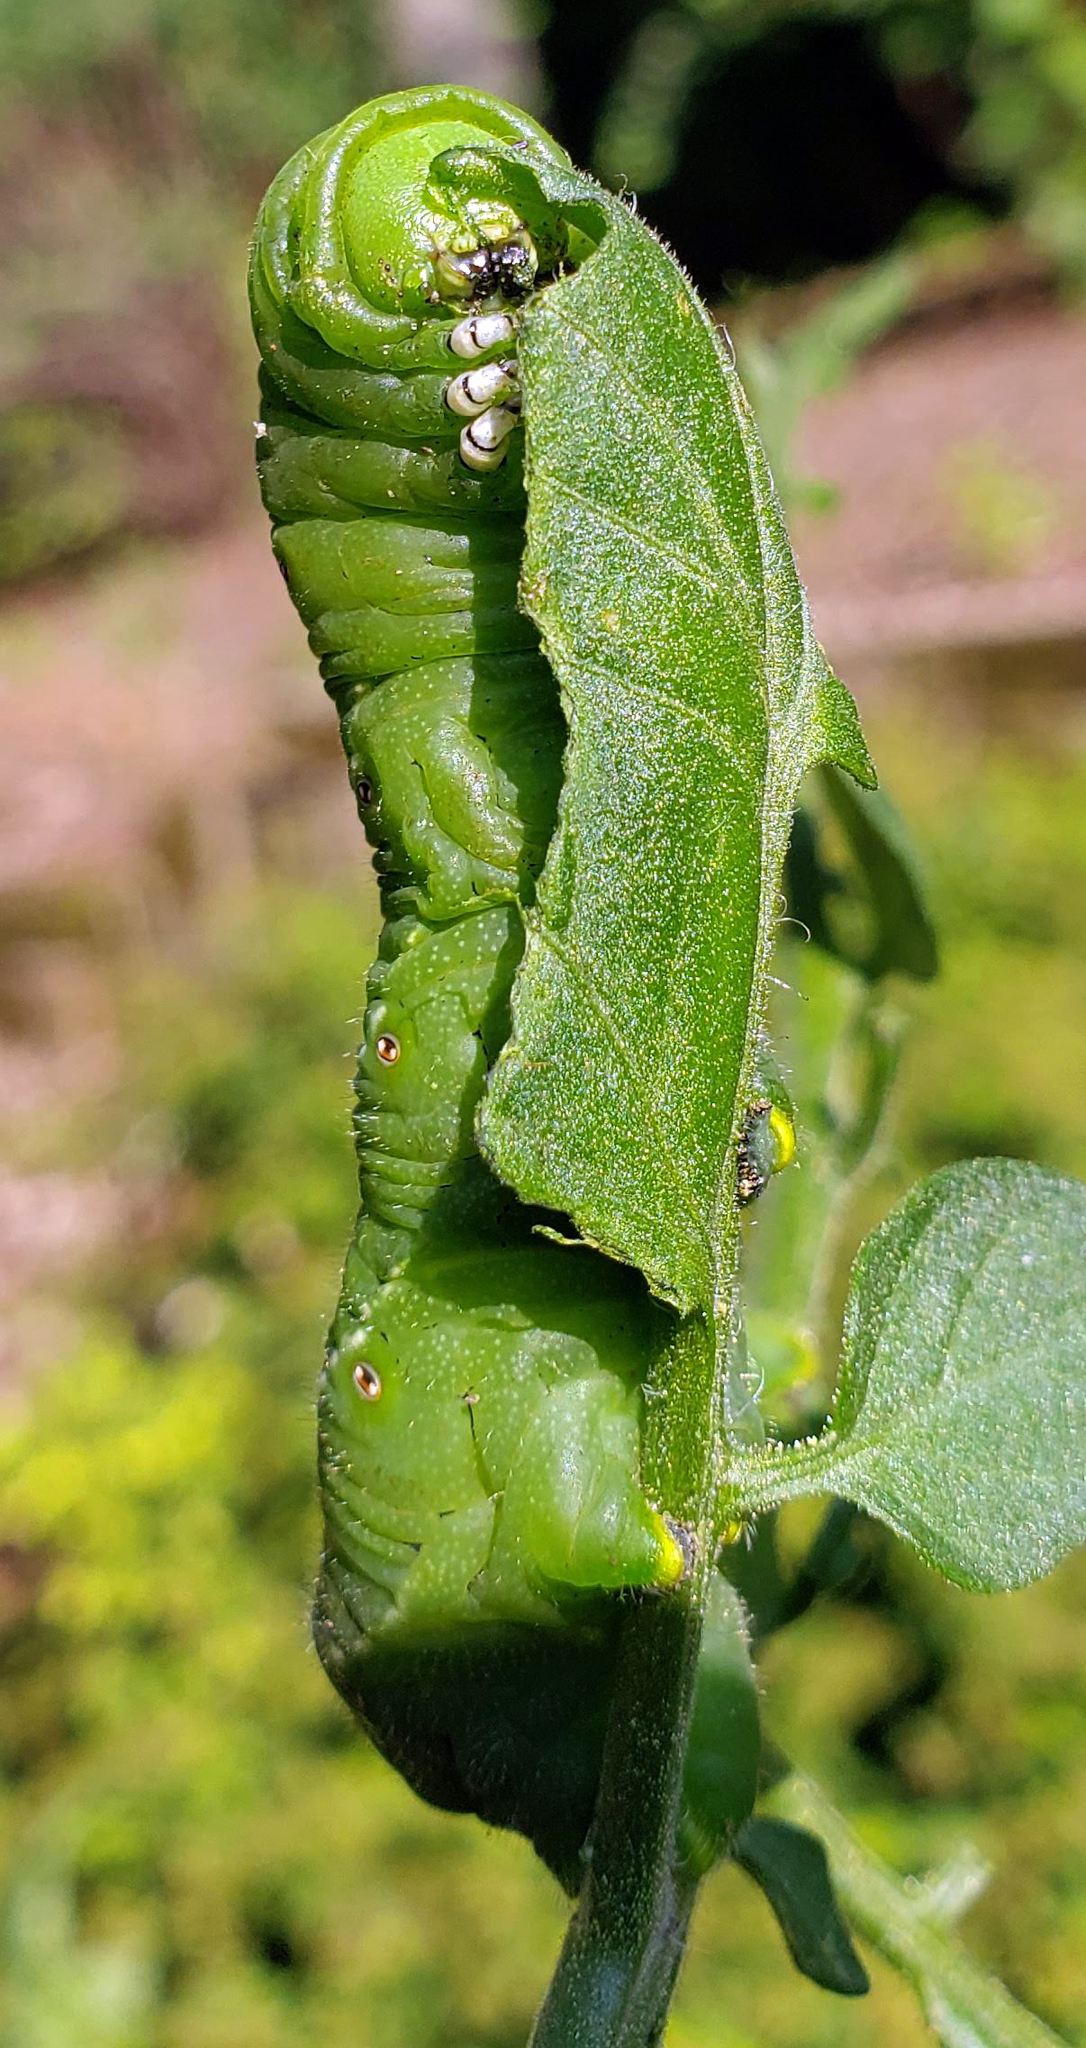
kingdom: Animalia
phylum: Arthropoda
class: Insecta
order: Lepidoptera
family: Sphingidae
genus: Manduca
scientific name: Manduca sexta
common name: Carolina sphinx
